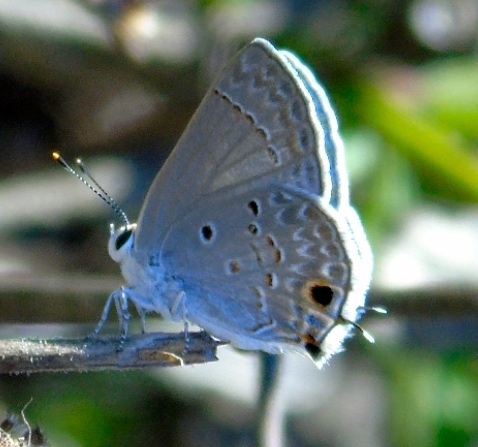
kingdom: Animalia
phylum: Arthropoda
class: Insecta
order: Lepidoptera
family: Lycaenidae
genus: Callicista
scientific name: Callicista columella
